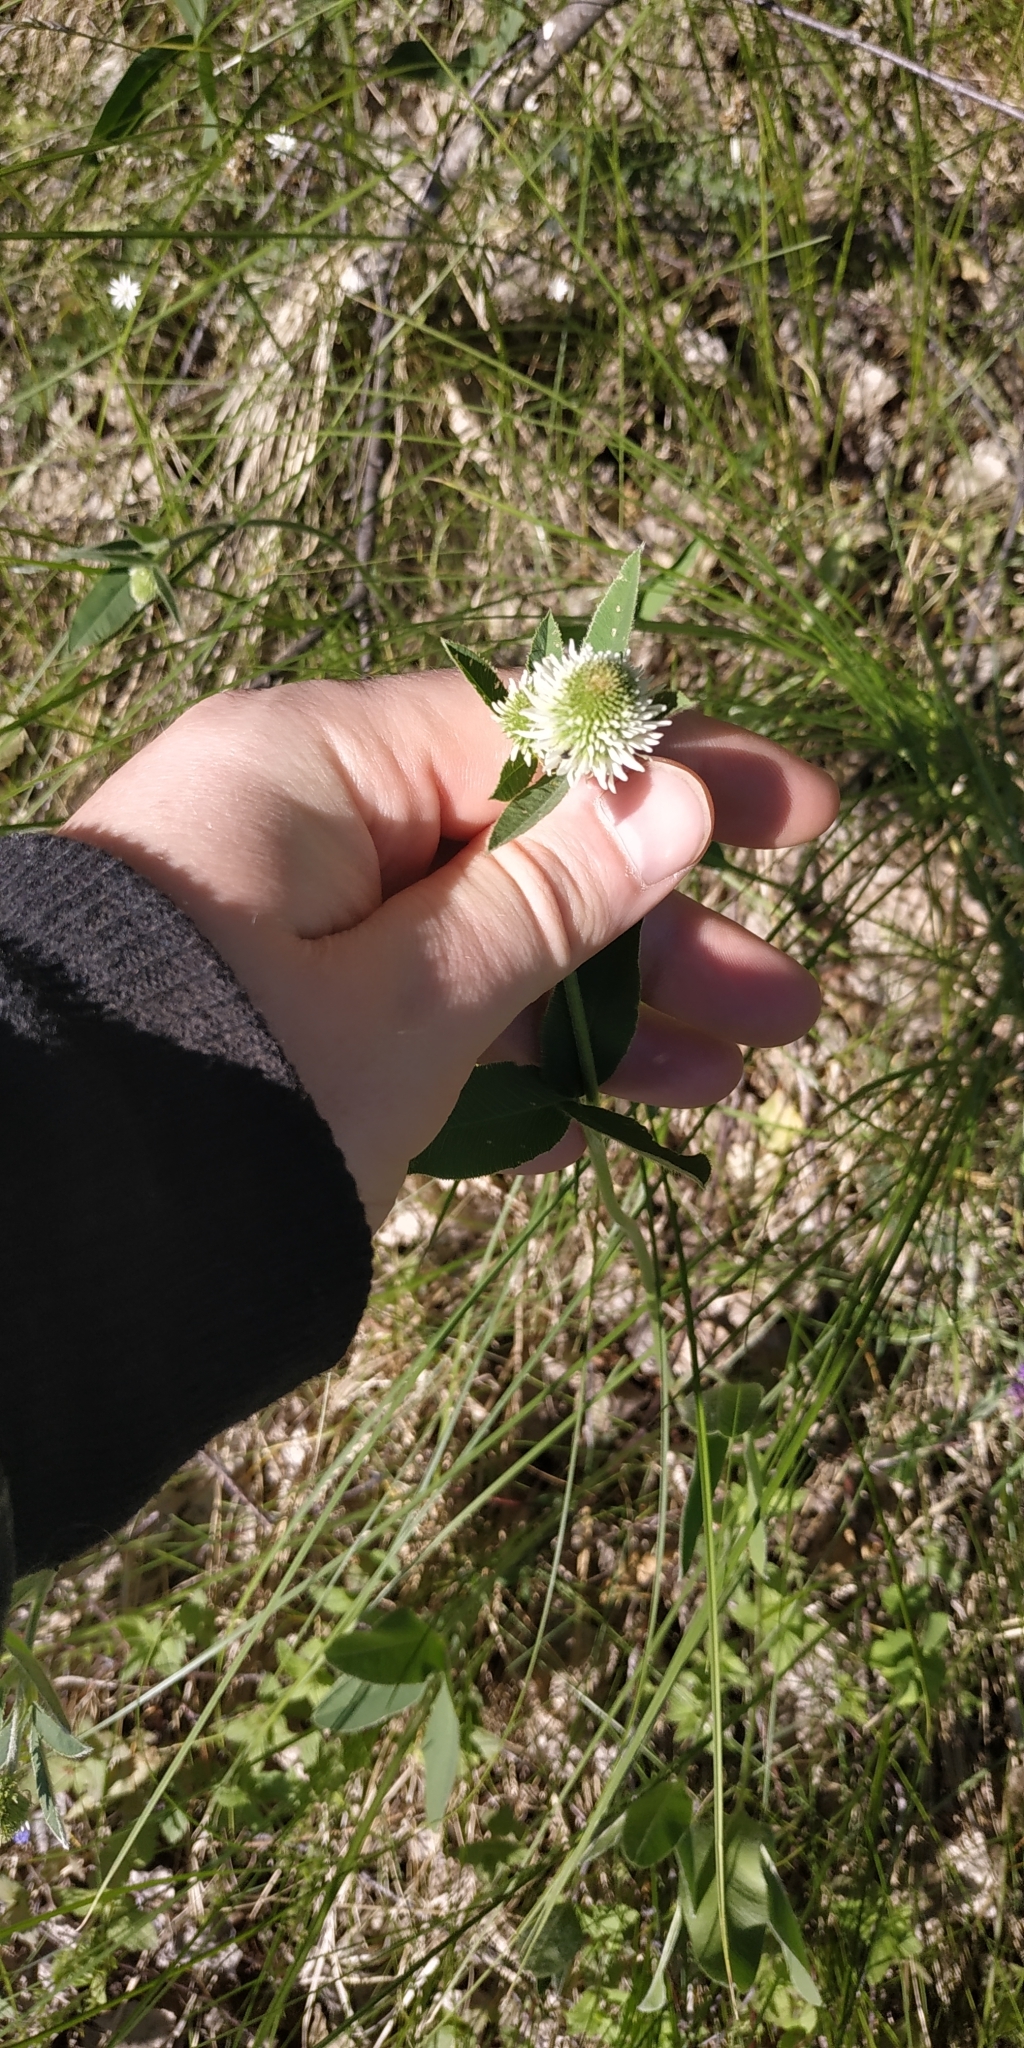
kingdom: Plantae
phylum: Tracheophyta
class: Magnoliopsida
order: Fabales
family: Fabaceae
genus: Trifolium
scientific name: Trifolium montanum
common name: Mountain clover
